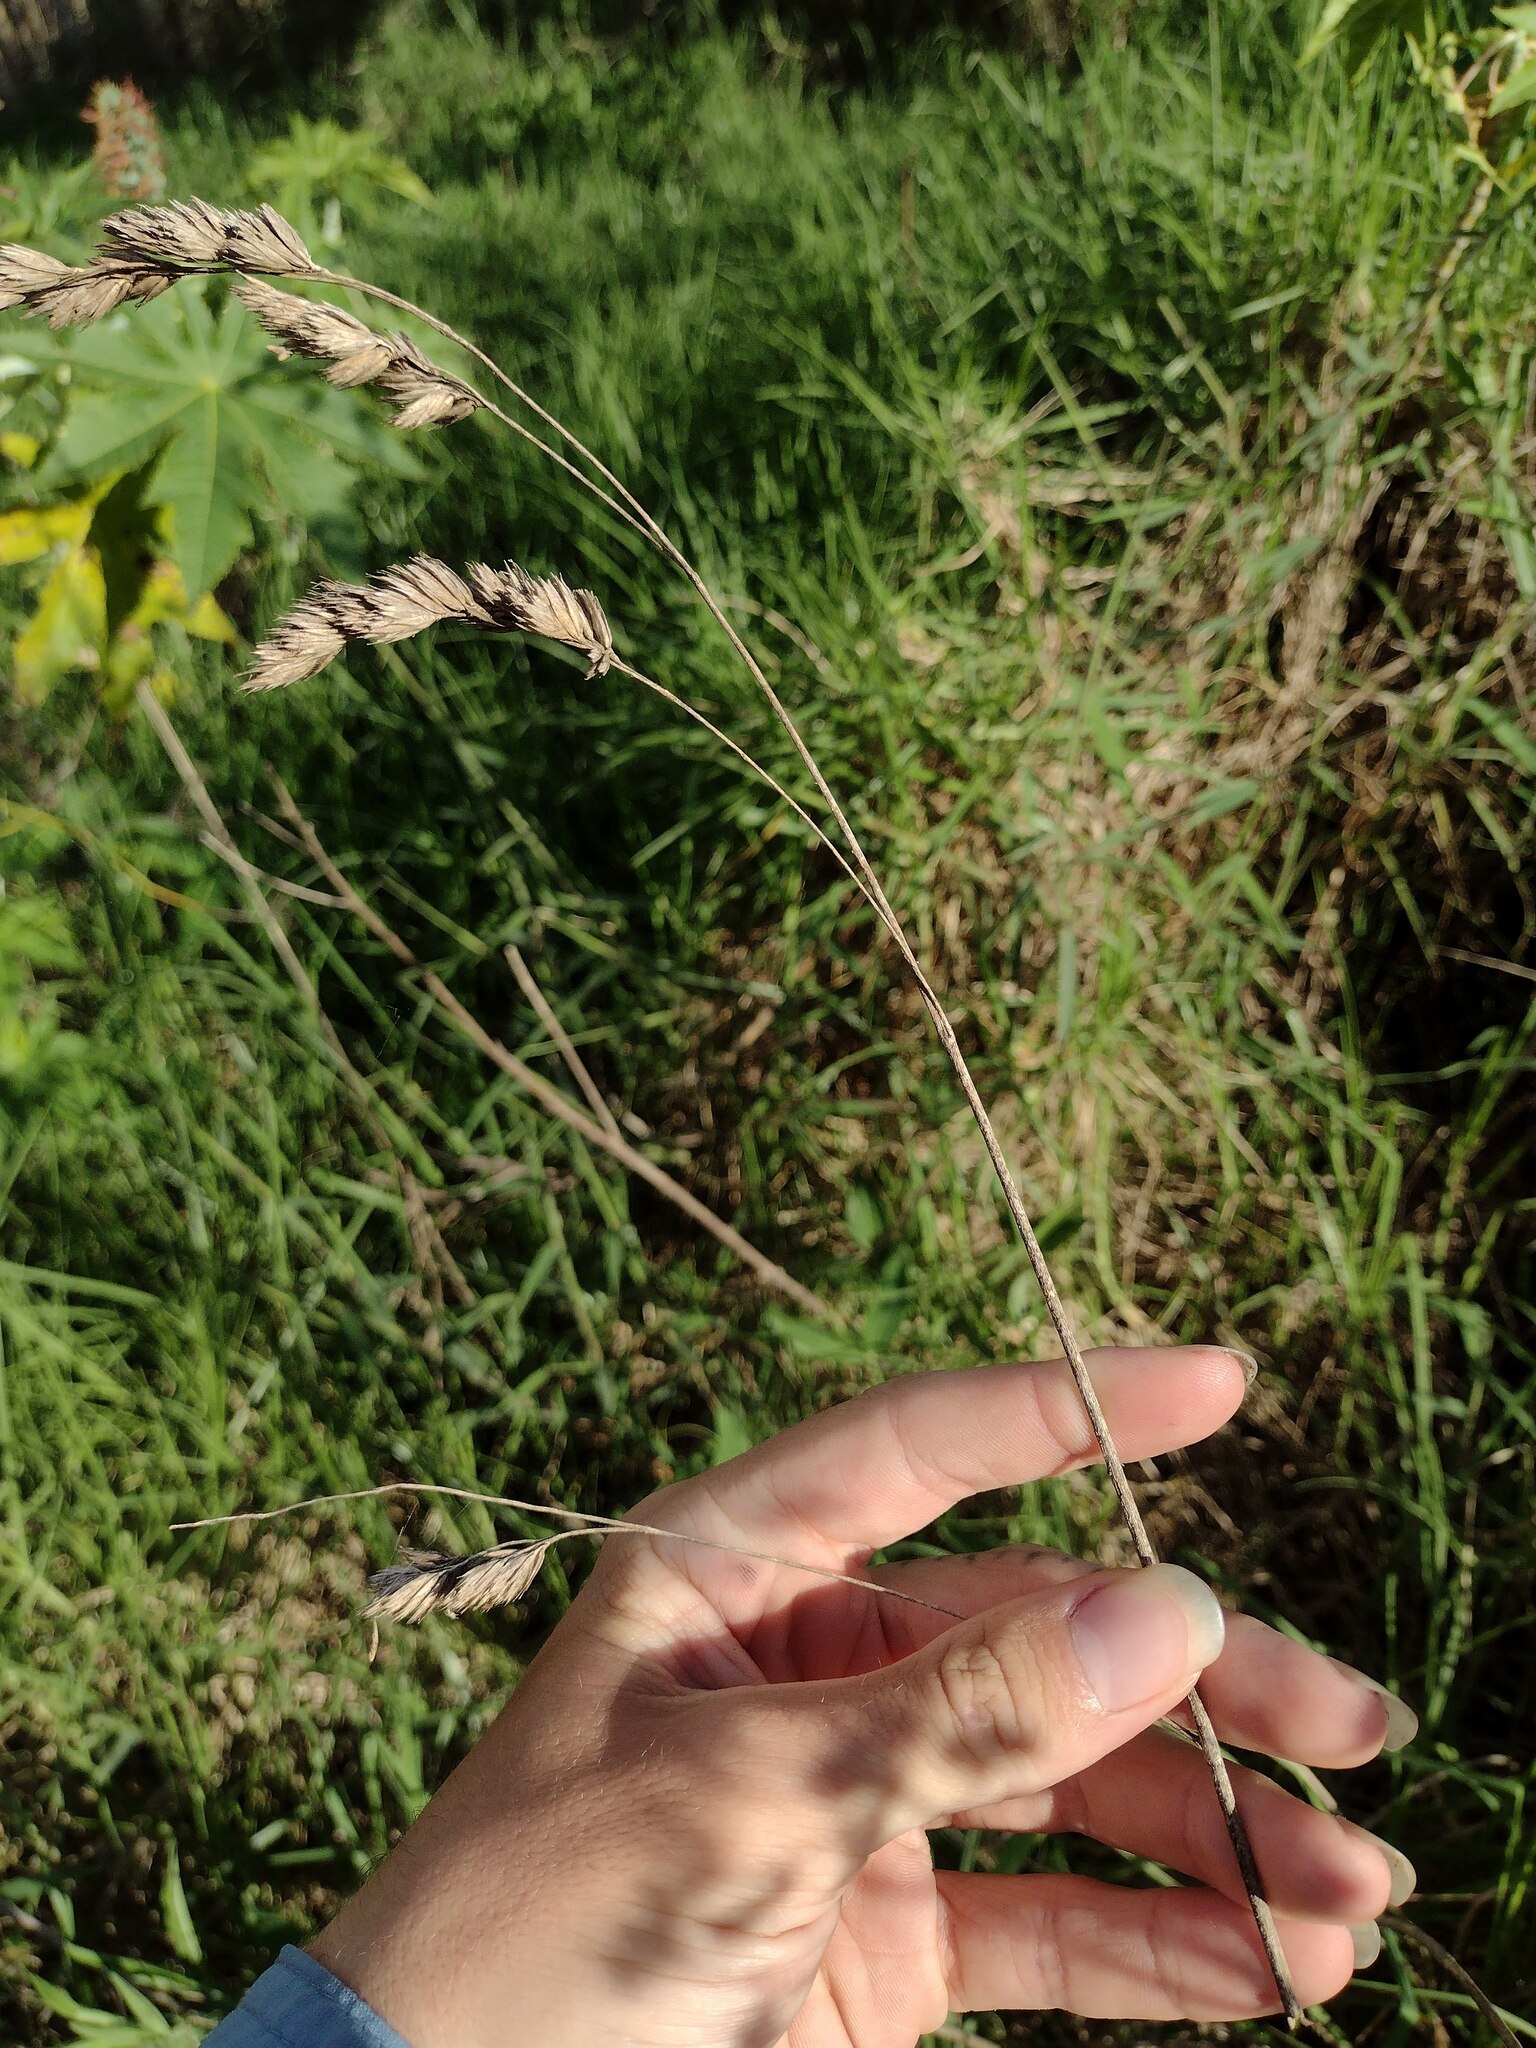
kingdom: Plantae
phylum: Tracheophyta
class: Liliopsida
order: Poales
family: Poaceae
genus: Dactylis
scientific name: Dactylis glomerata
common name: Orchardgrass
